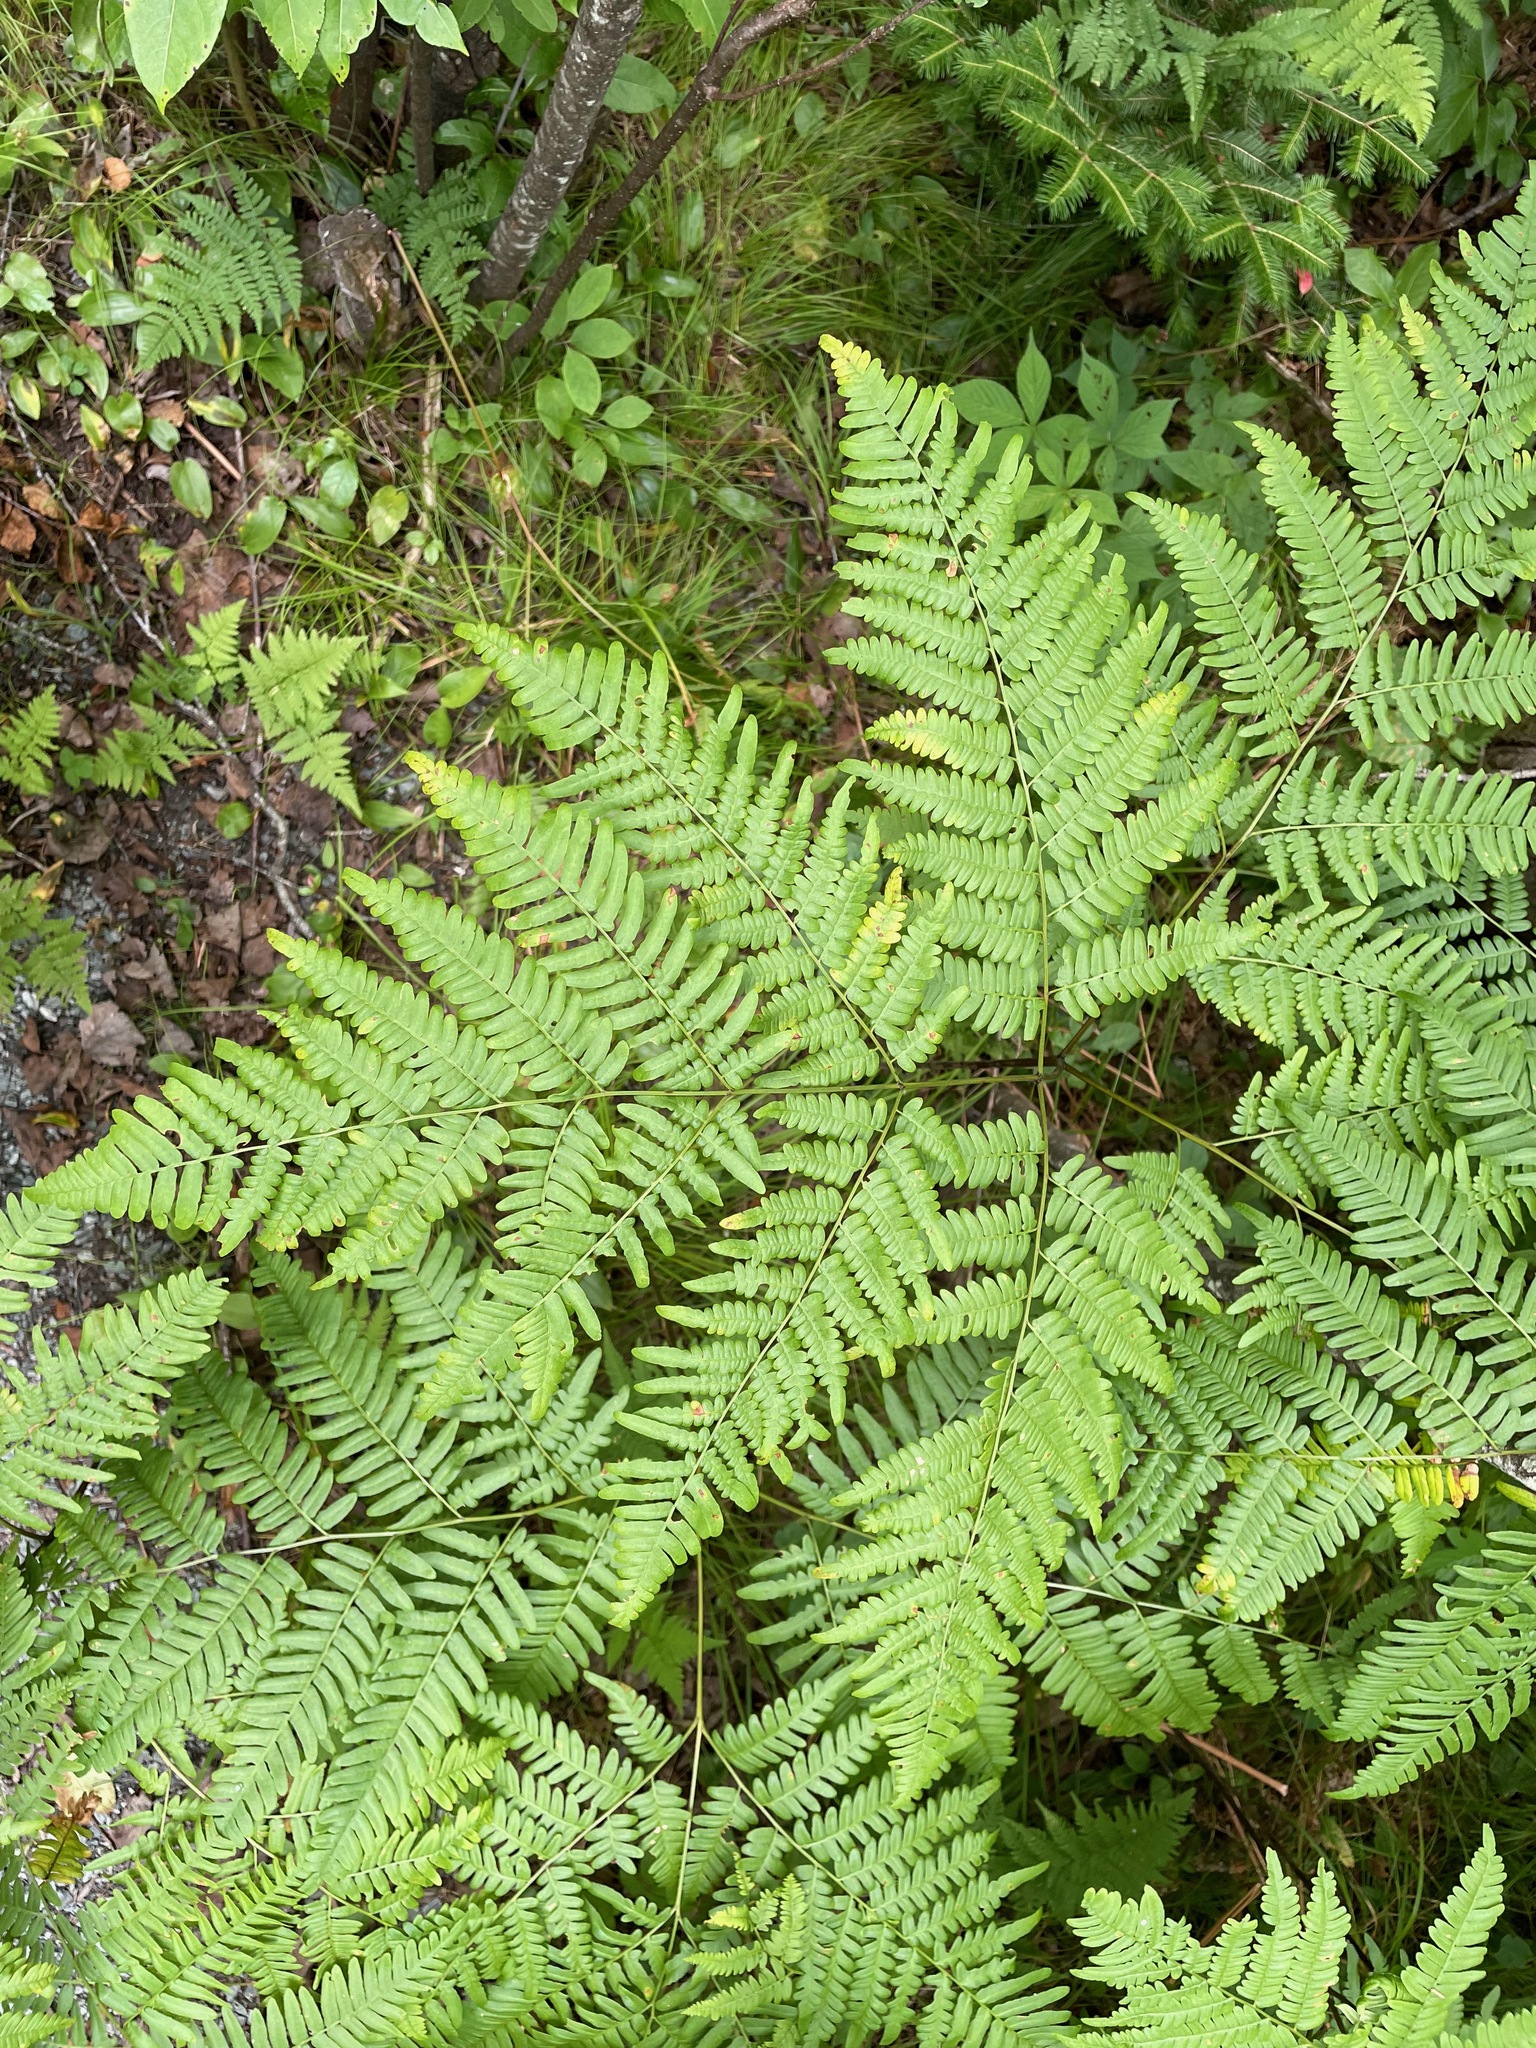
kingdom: Plantae
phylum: Tracheophyta
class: Polypodiopsida
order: Polypodiales
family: Dennstaedtiaceae
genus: Pteridium
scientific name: Pteridium aquilinum
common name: Bracken
